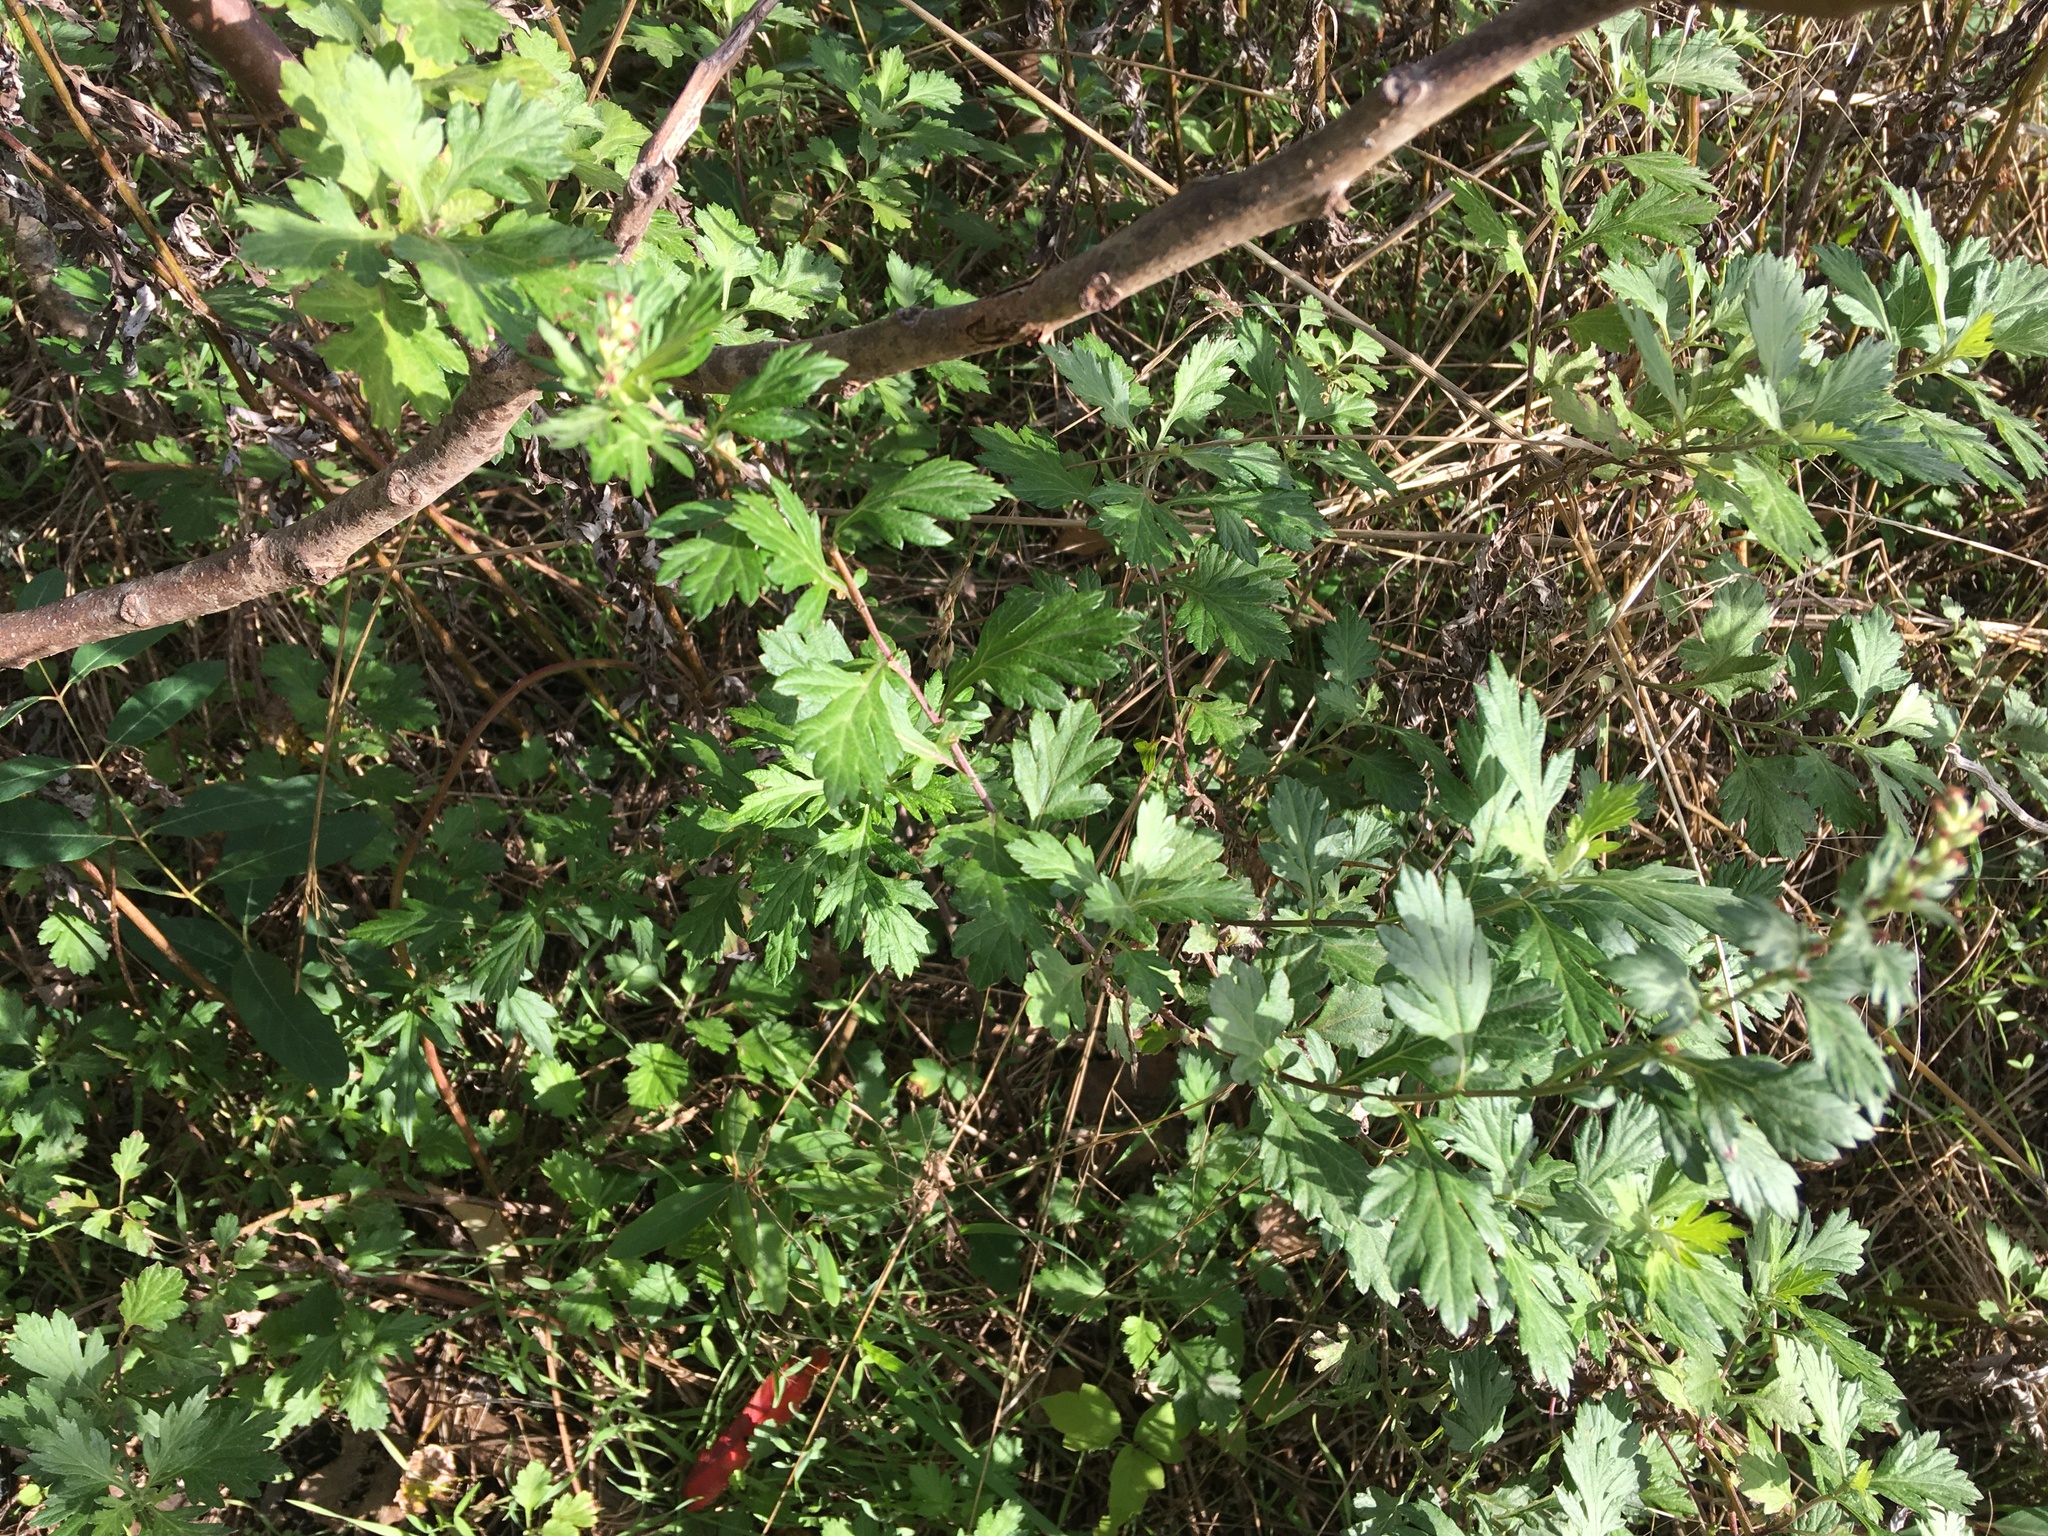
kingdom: Plantae
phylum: Tracheophyta
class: Magnoliopsida
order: Asterales
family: Asteraceae
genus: Artemisia
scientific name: Artemisia vulgaris
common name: Mugwort
